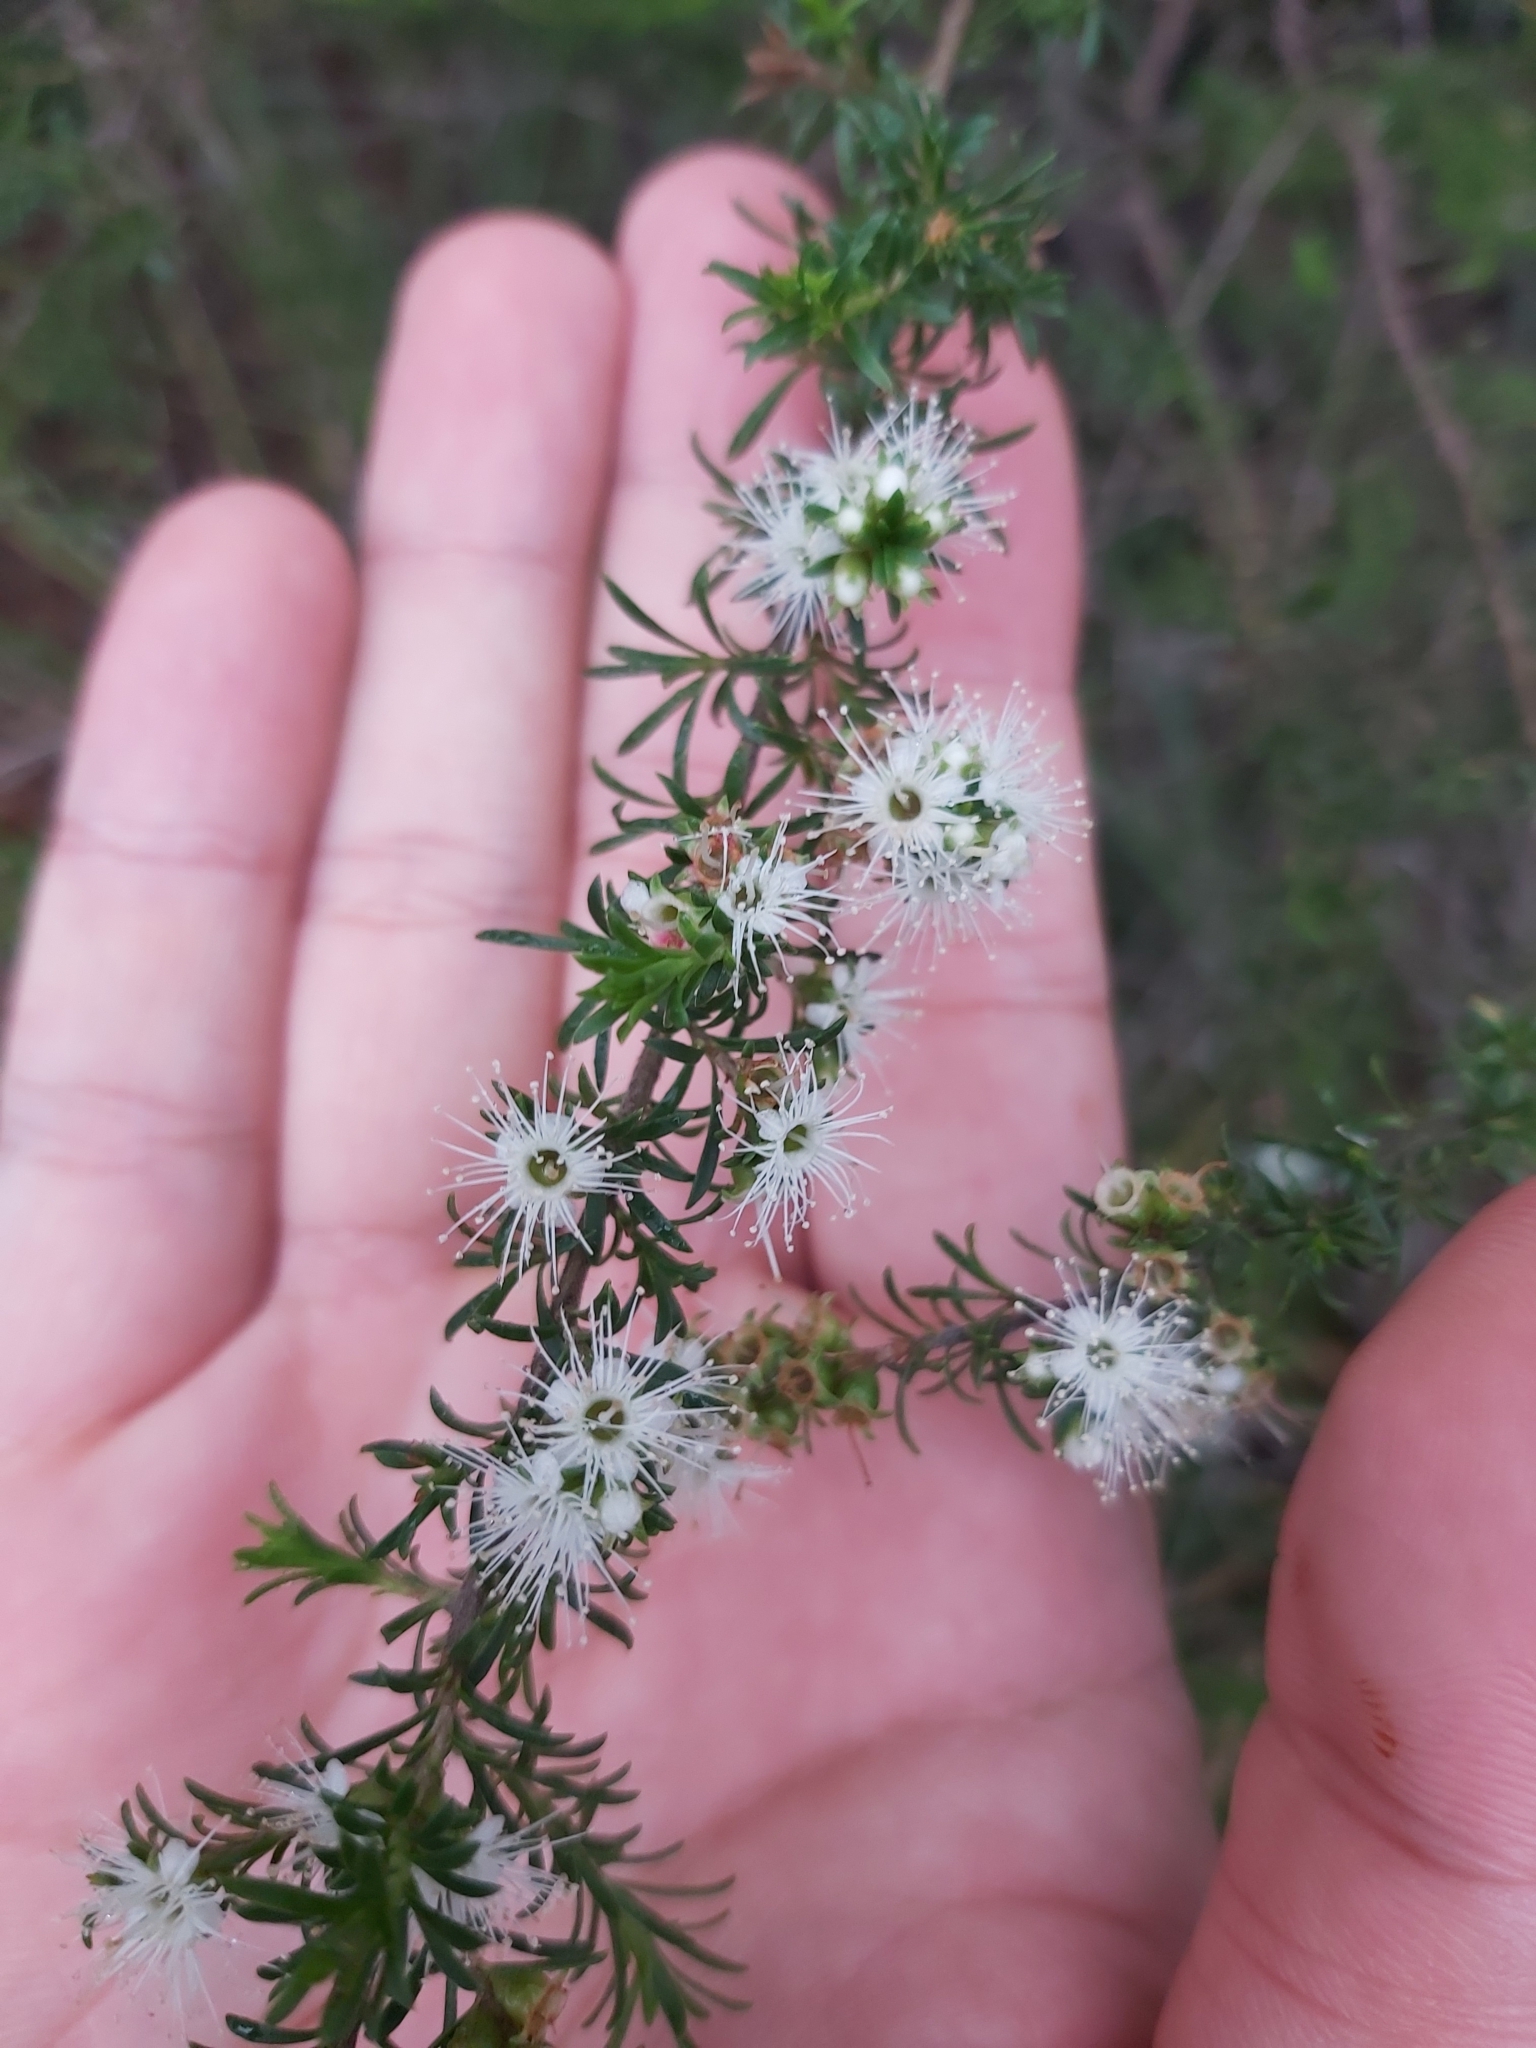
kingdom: Plantae
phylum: Tracheophyta
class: Magnoliopsida
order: Myrtales
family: Myrtaceae
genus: Kunzea
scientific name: Kunzea ambigua
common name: Tickbush
